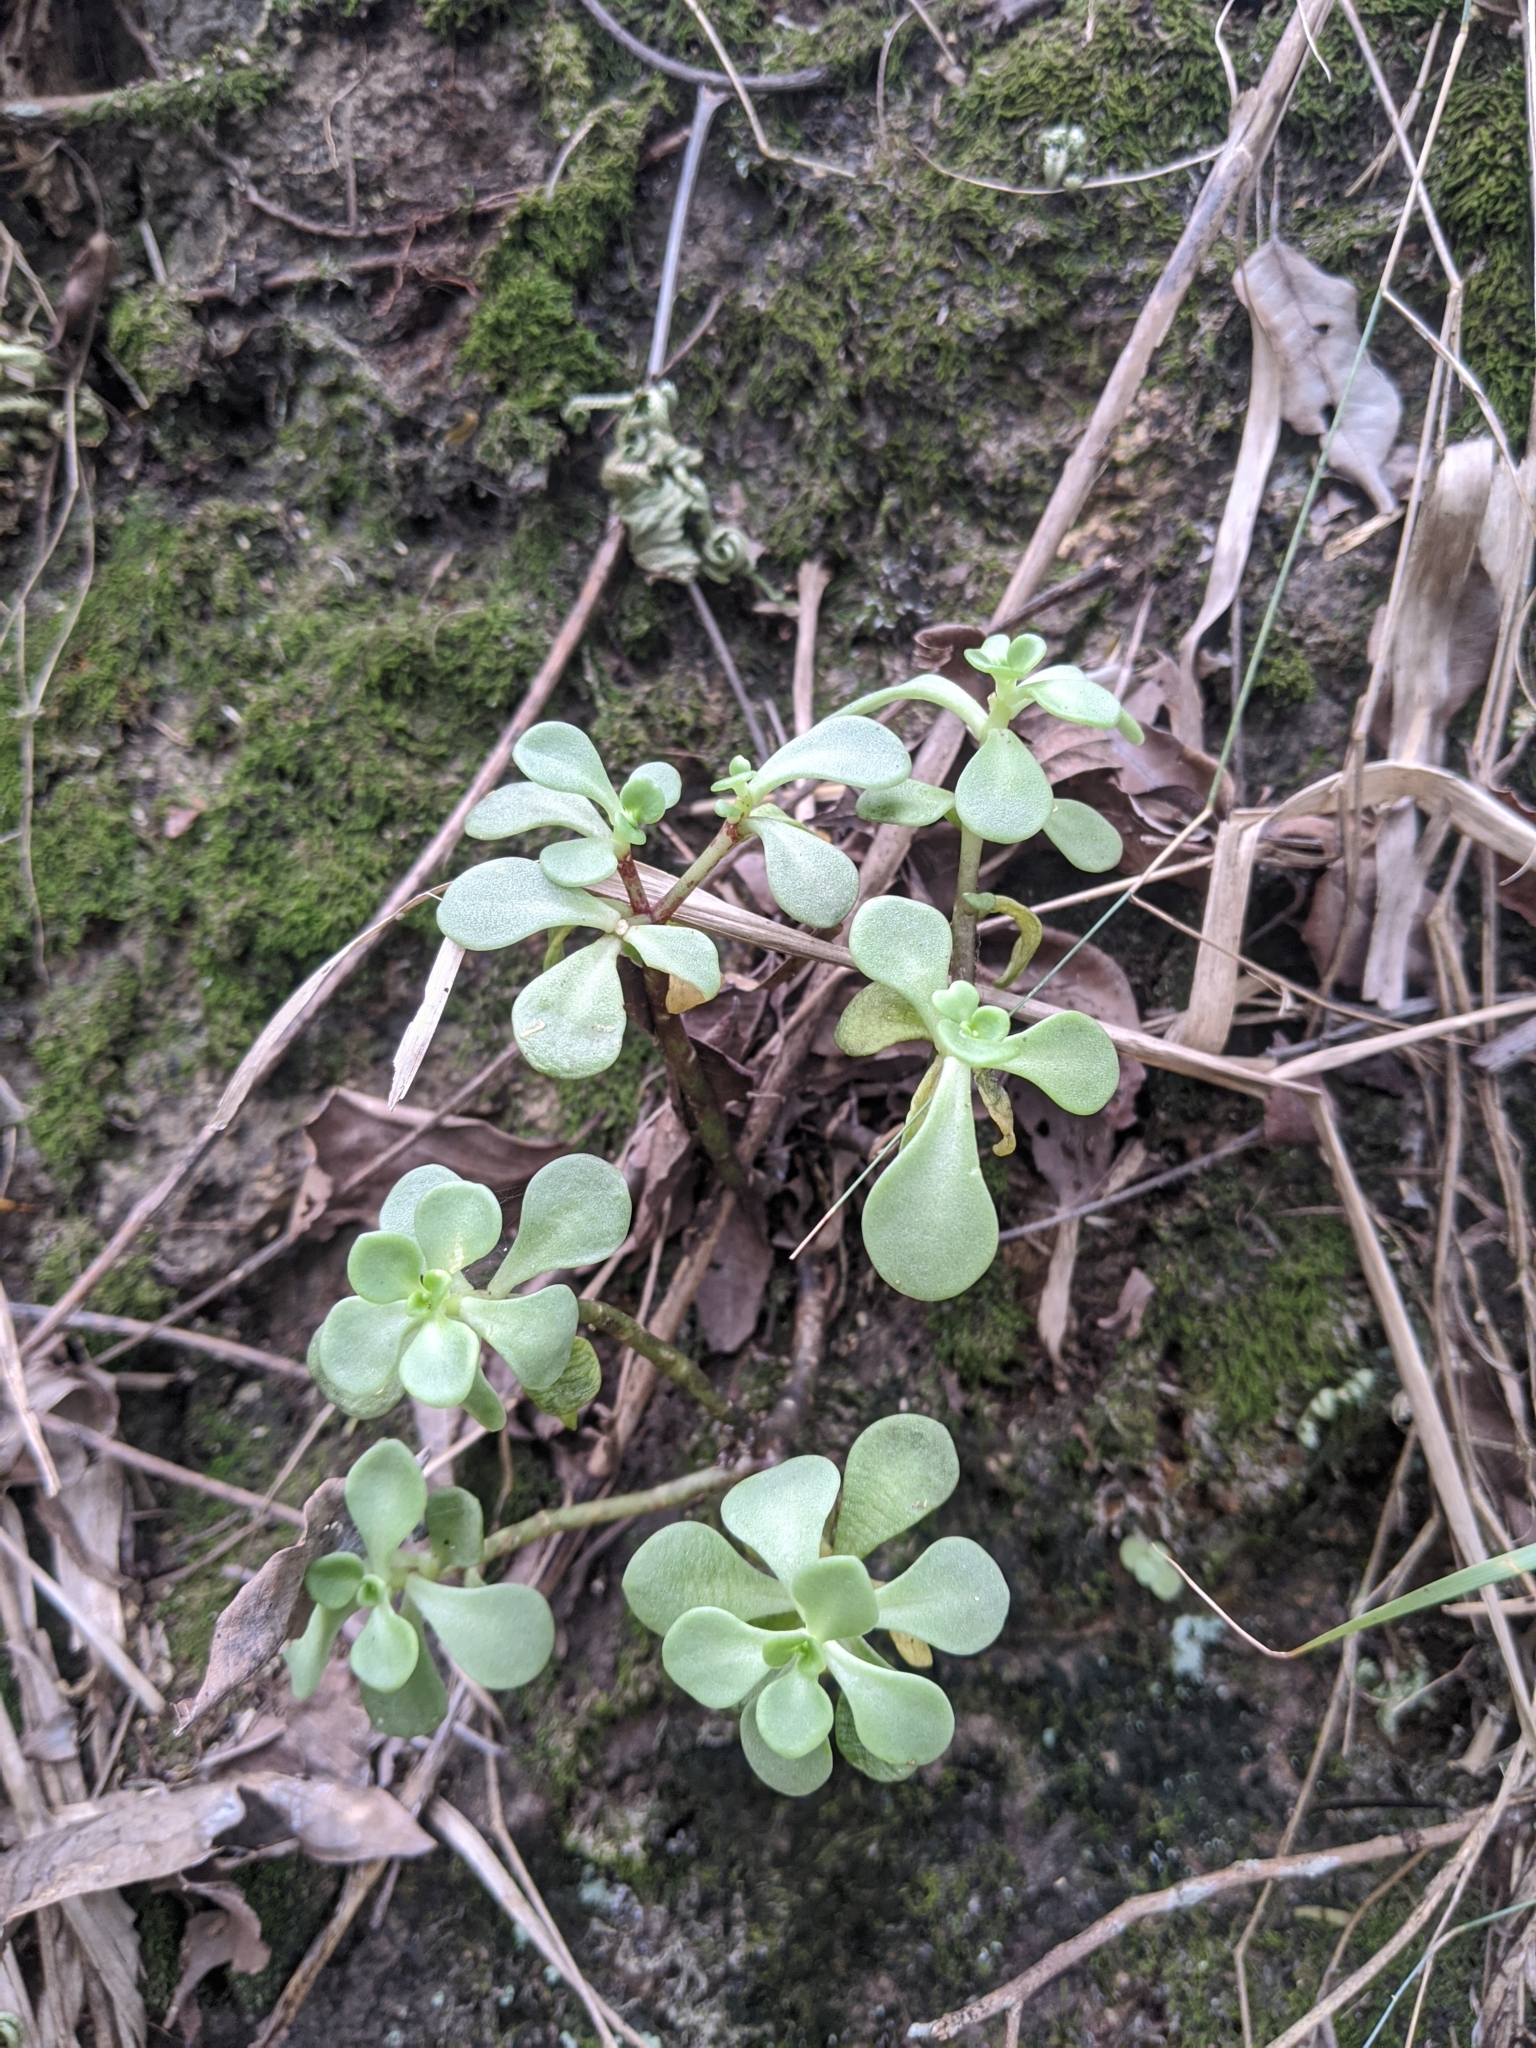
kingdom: Plantae
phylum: Tracheophyta
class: Magnoliopsida
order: Saxifragales
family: Crassulaceae
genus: Sedum
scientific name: Sedum formosanum
